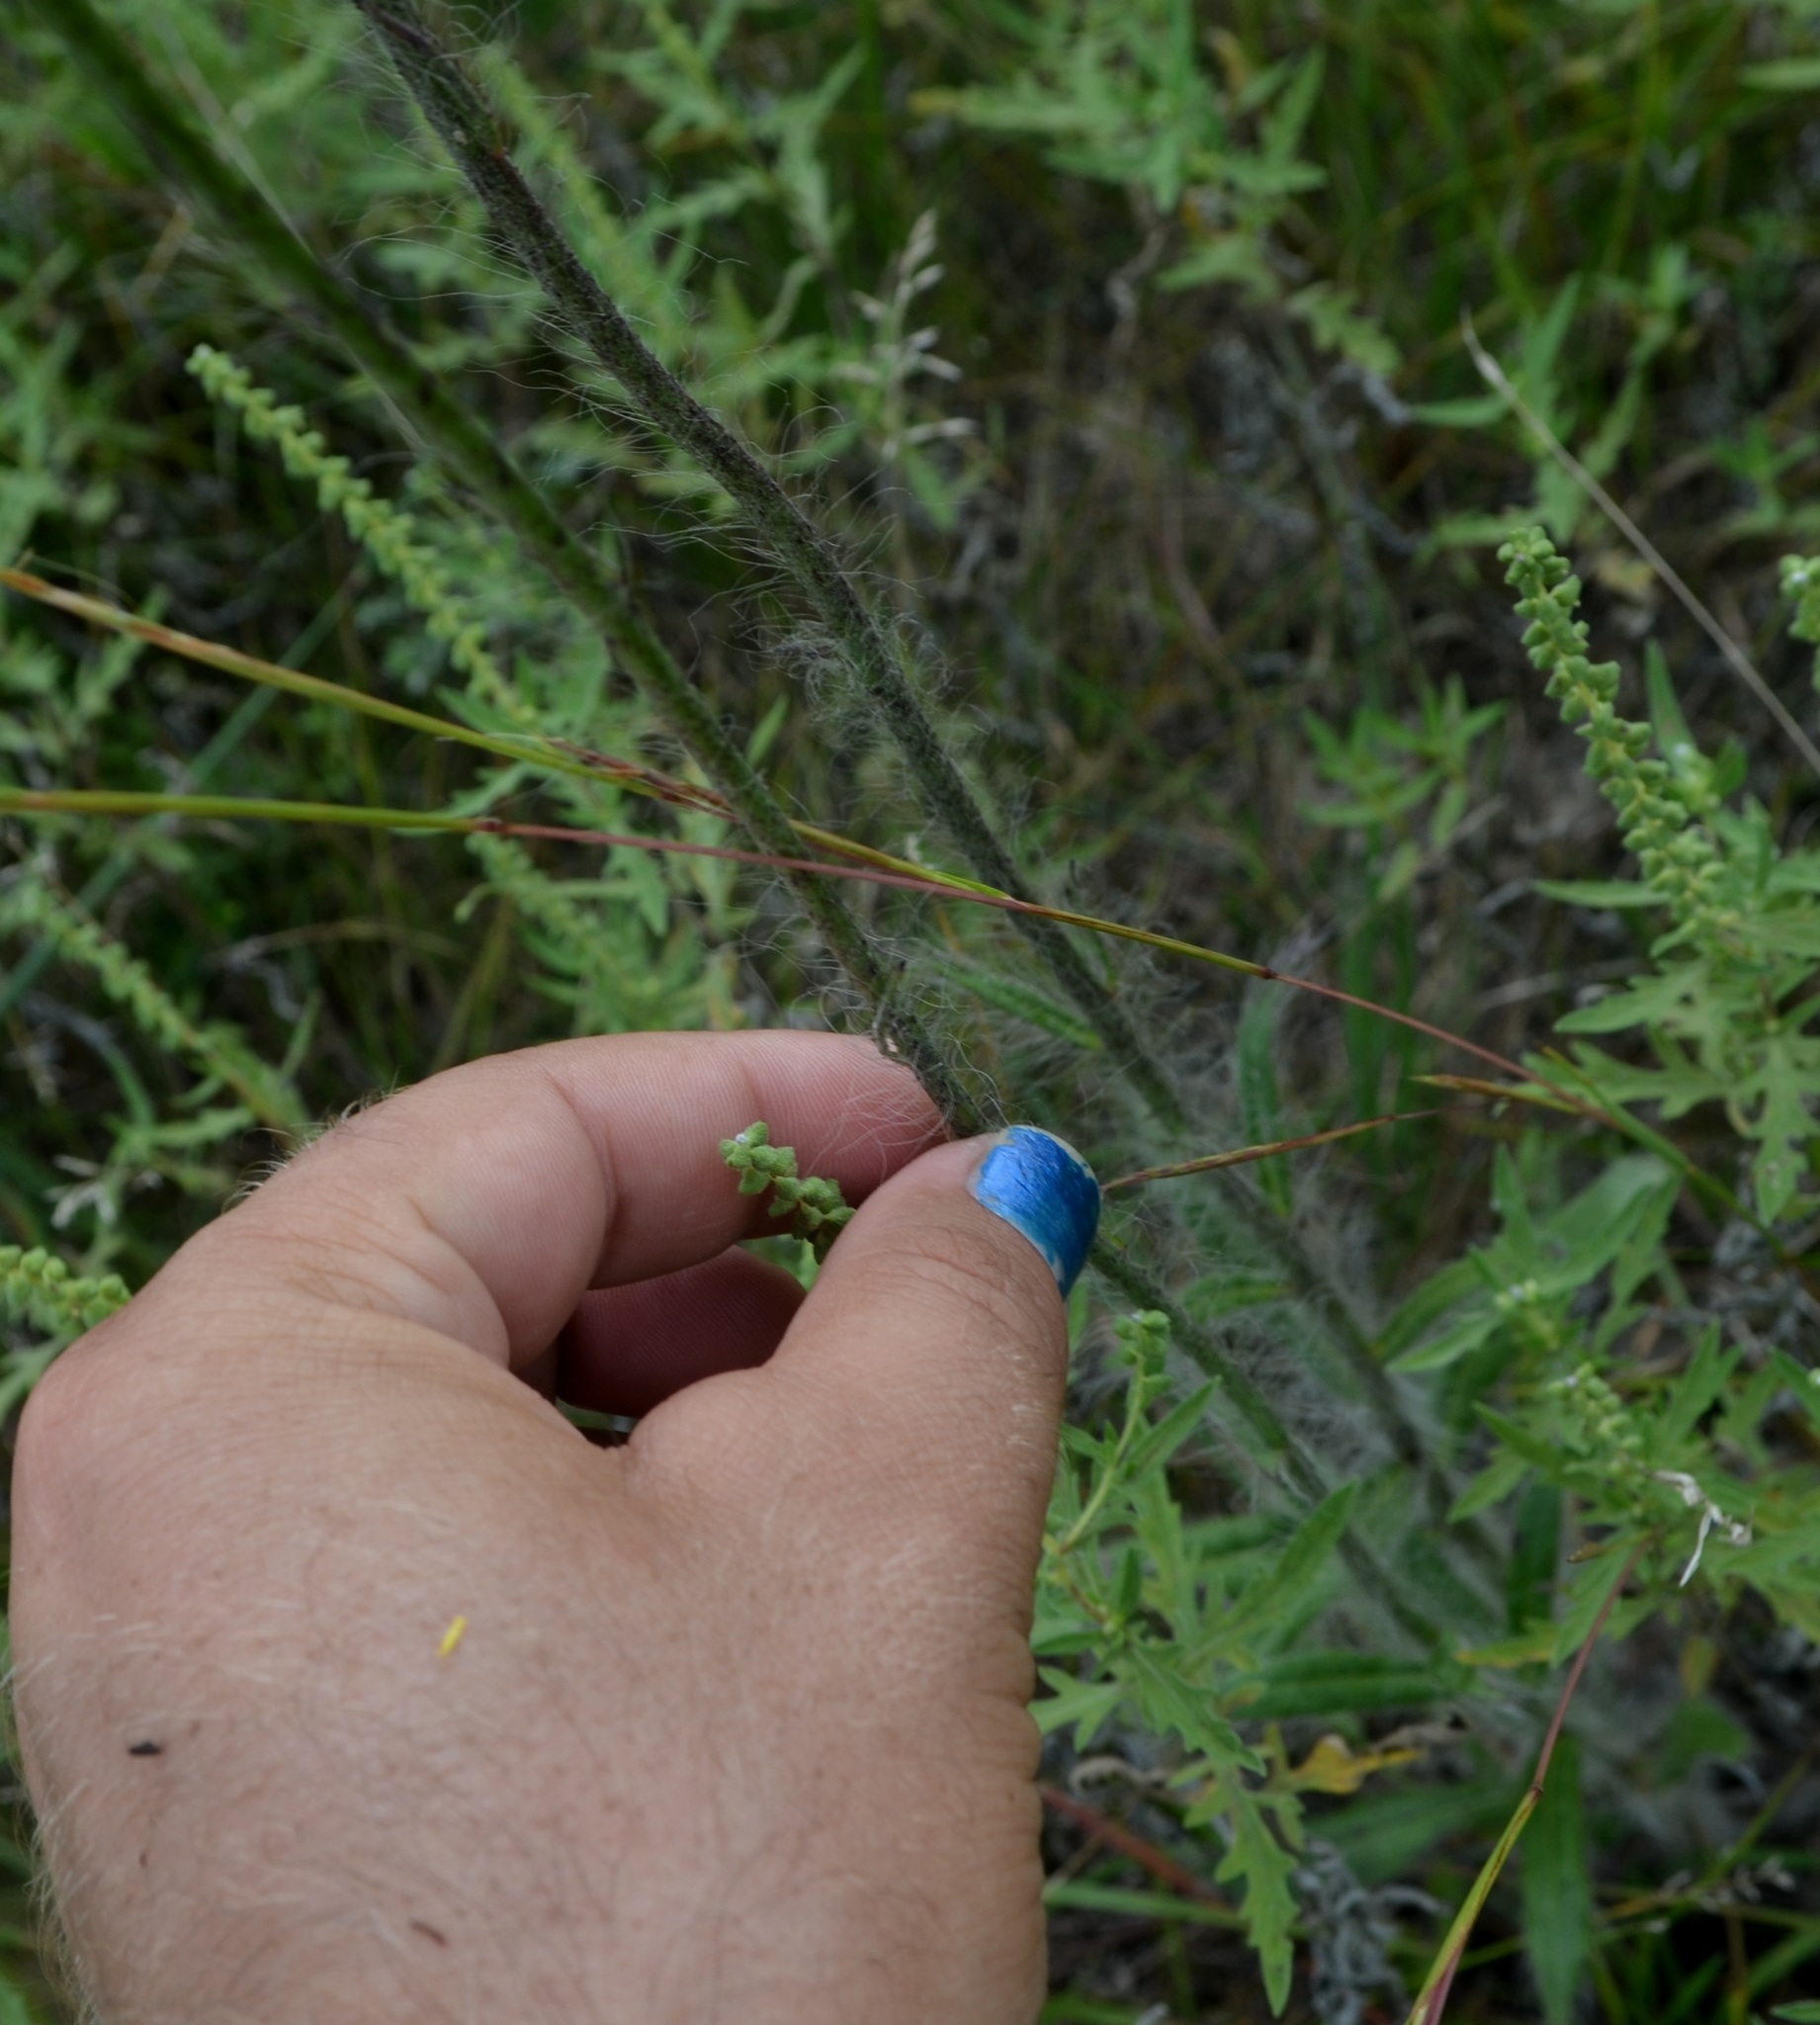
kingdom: Plantae
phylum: Tracheophyta
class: Magnoliopsida
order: Asterales
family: Asteraceae
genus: Hieracium
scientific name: Hieracium longipilum
